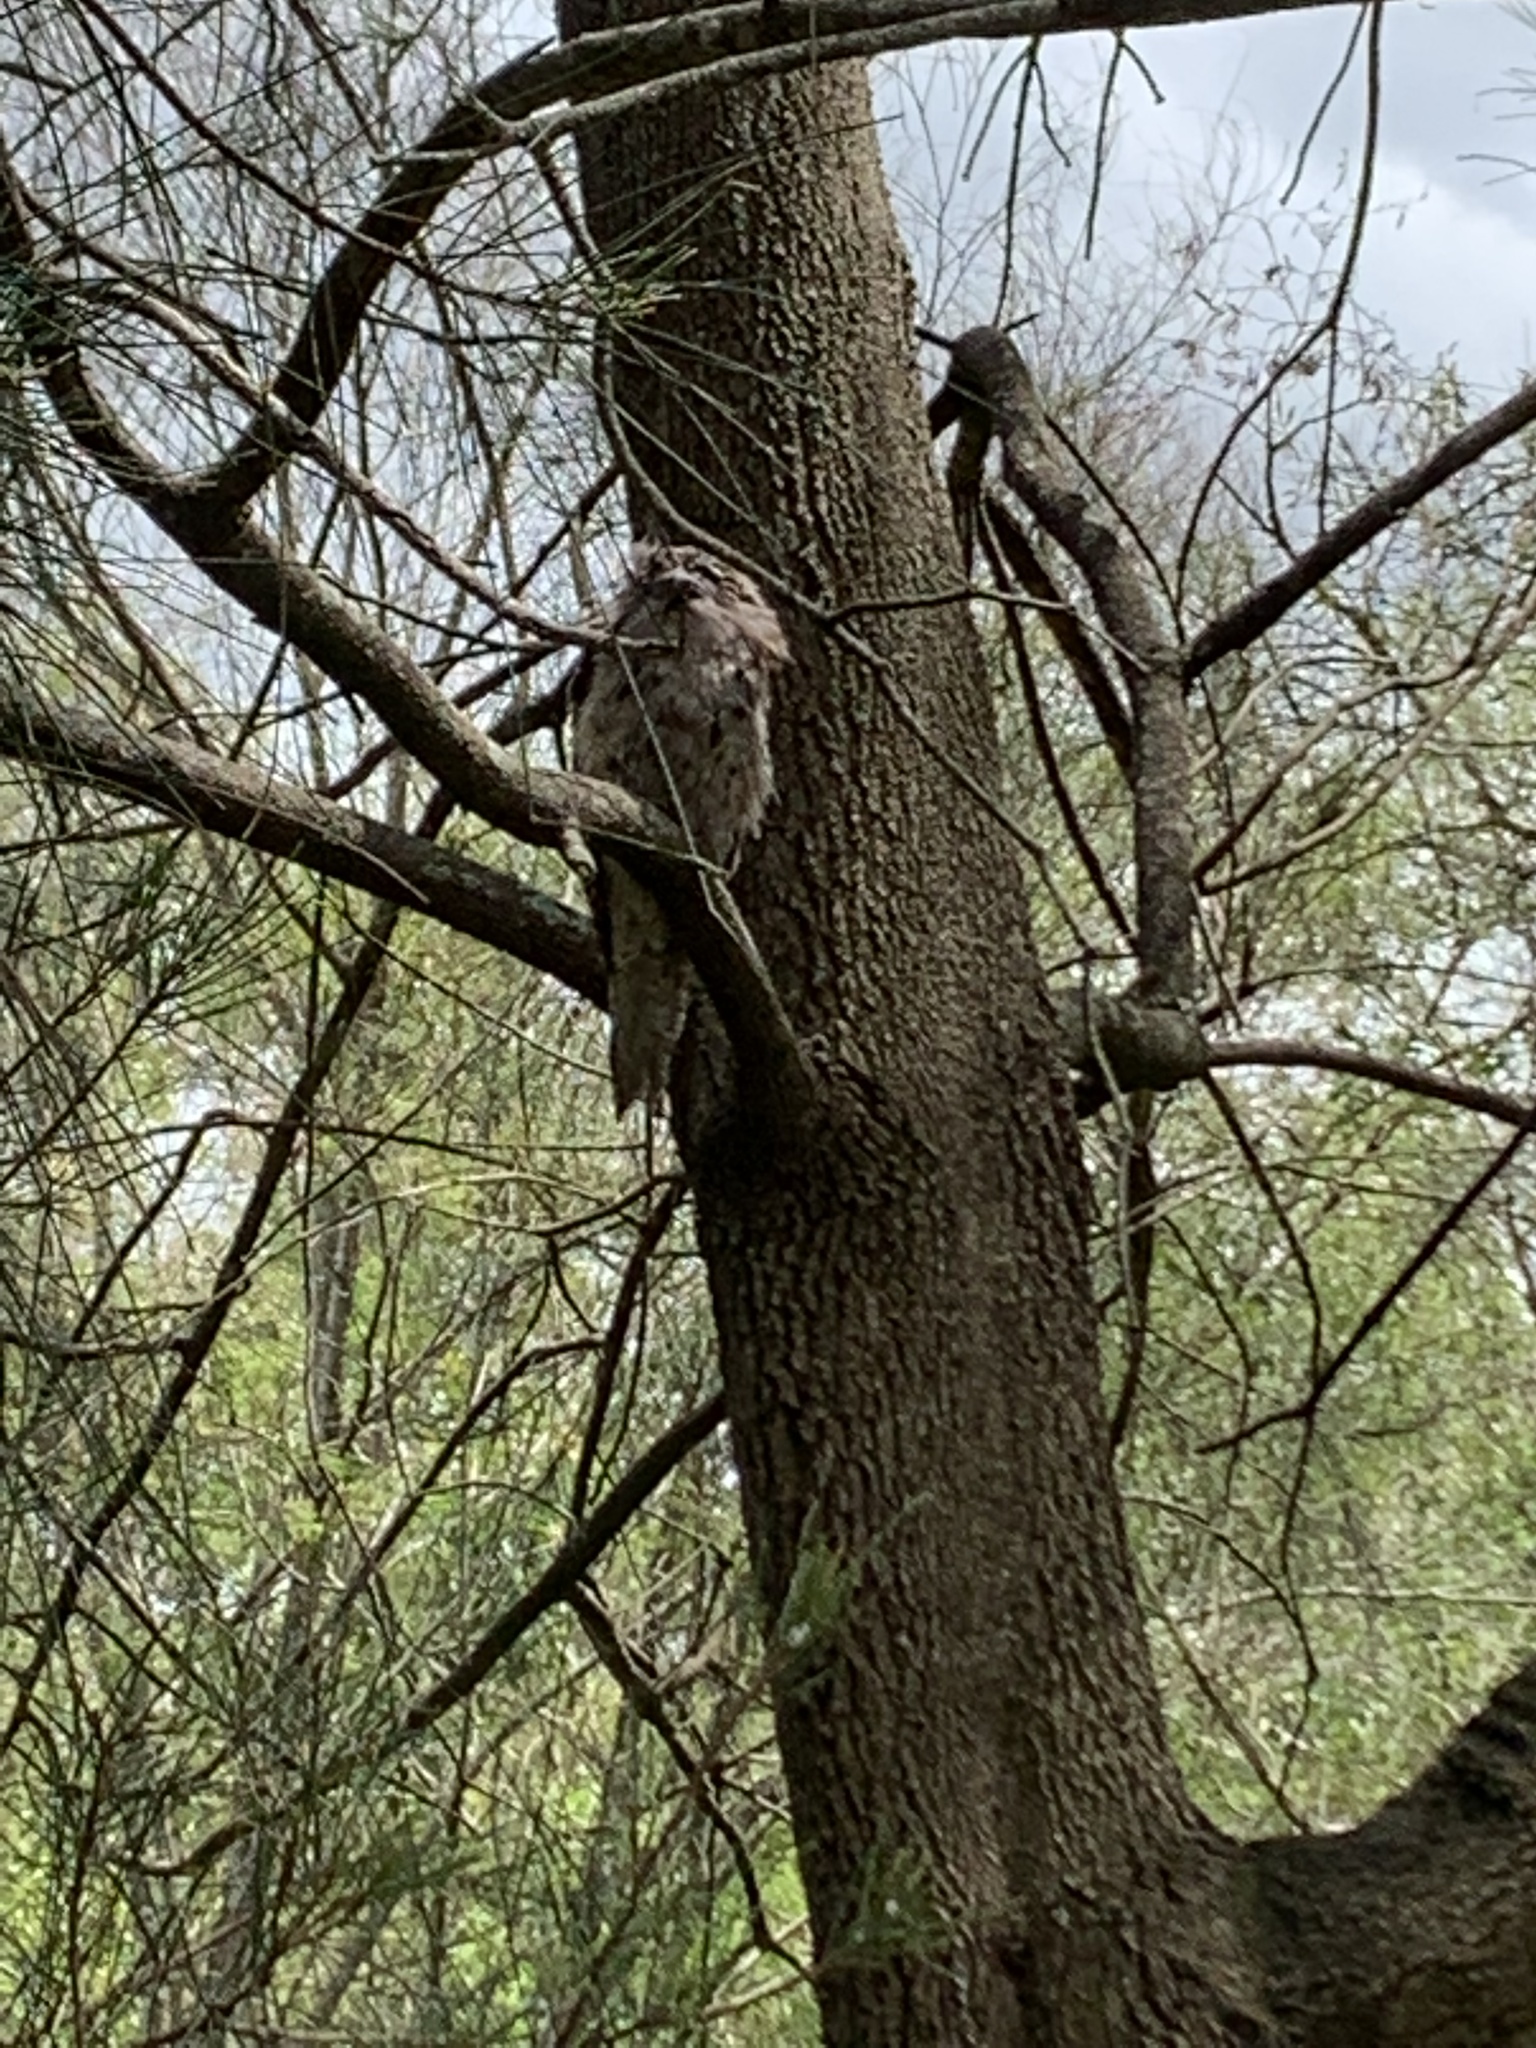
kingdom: Animalia
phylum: Chordata
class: Aves
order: Caprimulgiformes
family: Podargidae
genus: Podargus
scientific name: Podargus strigoides
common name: Tawny frogmouth
